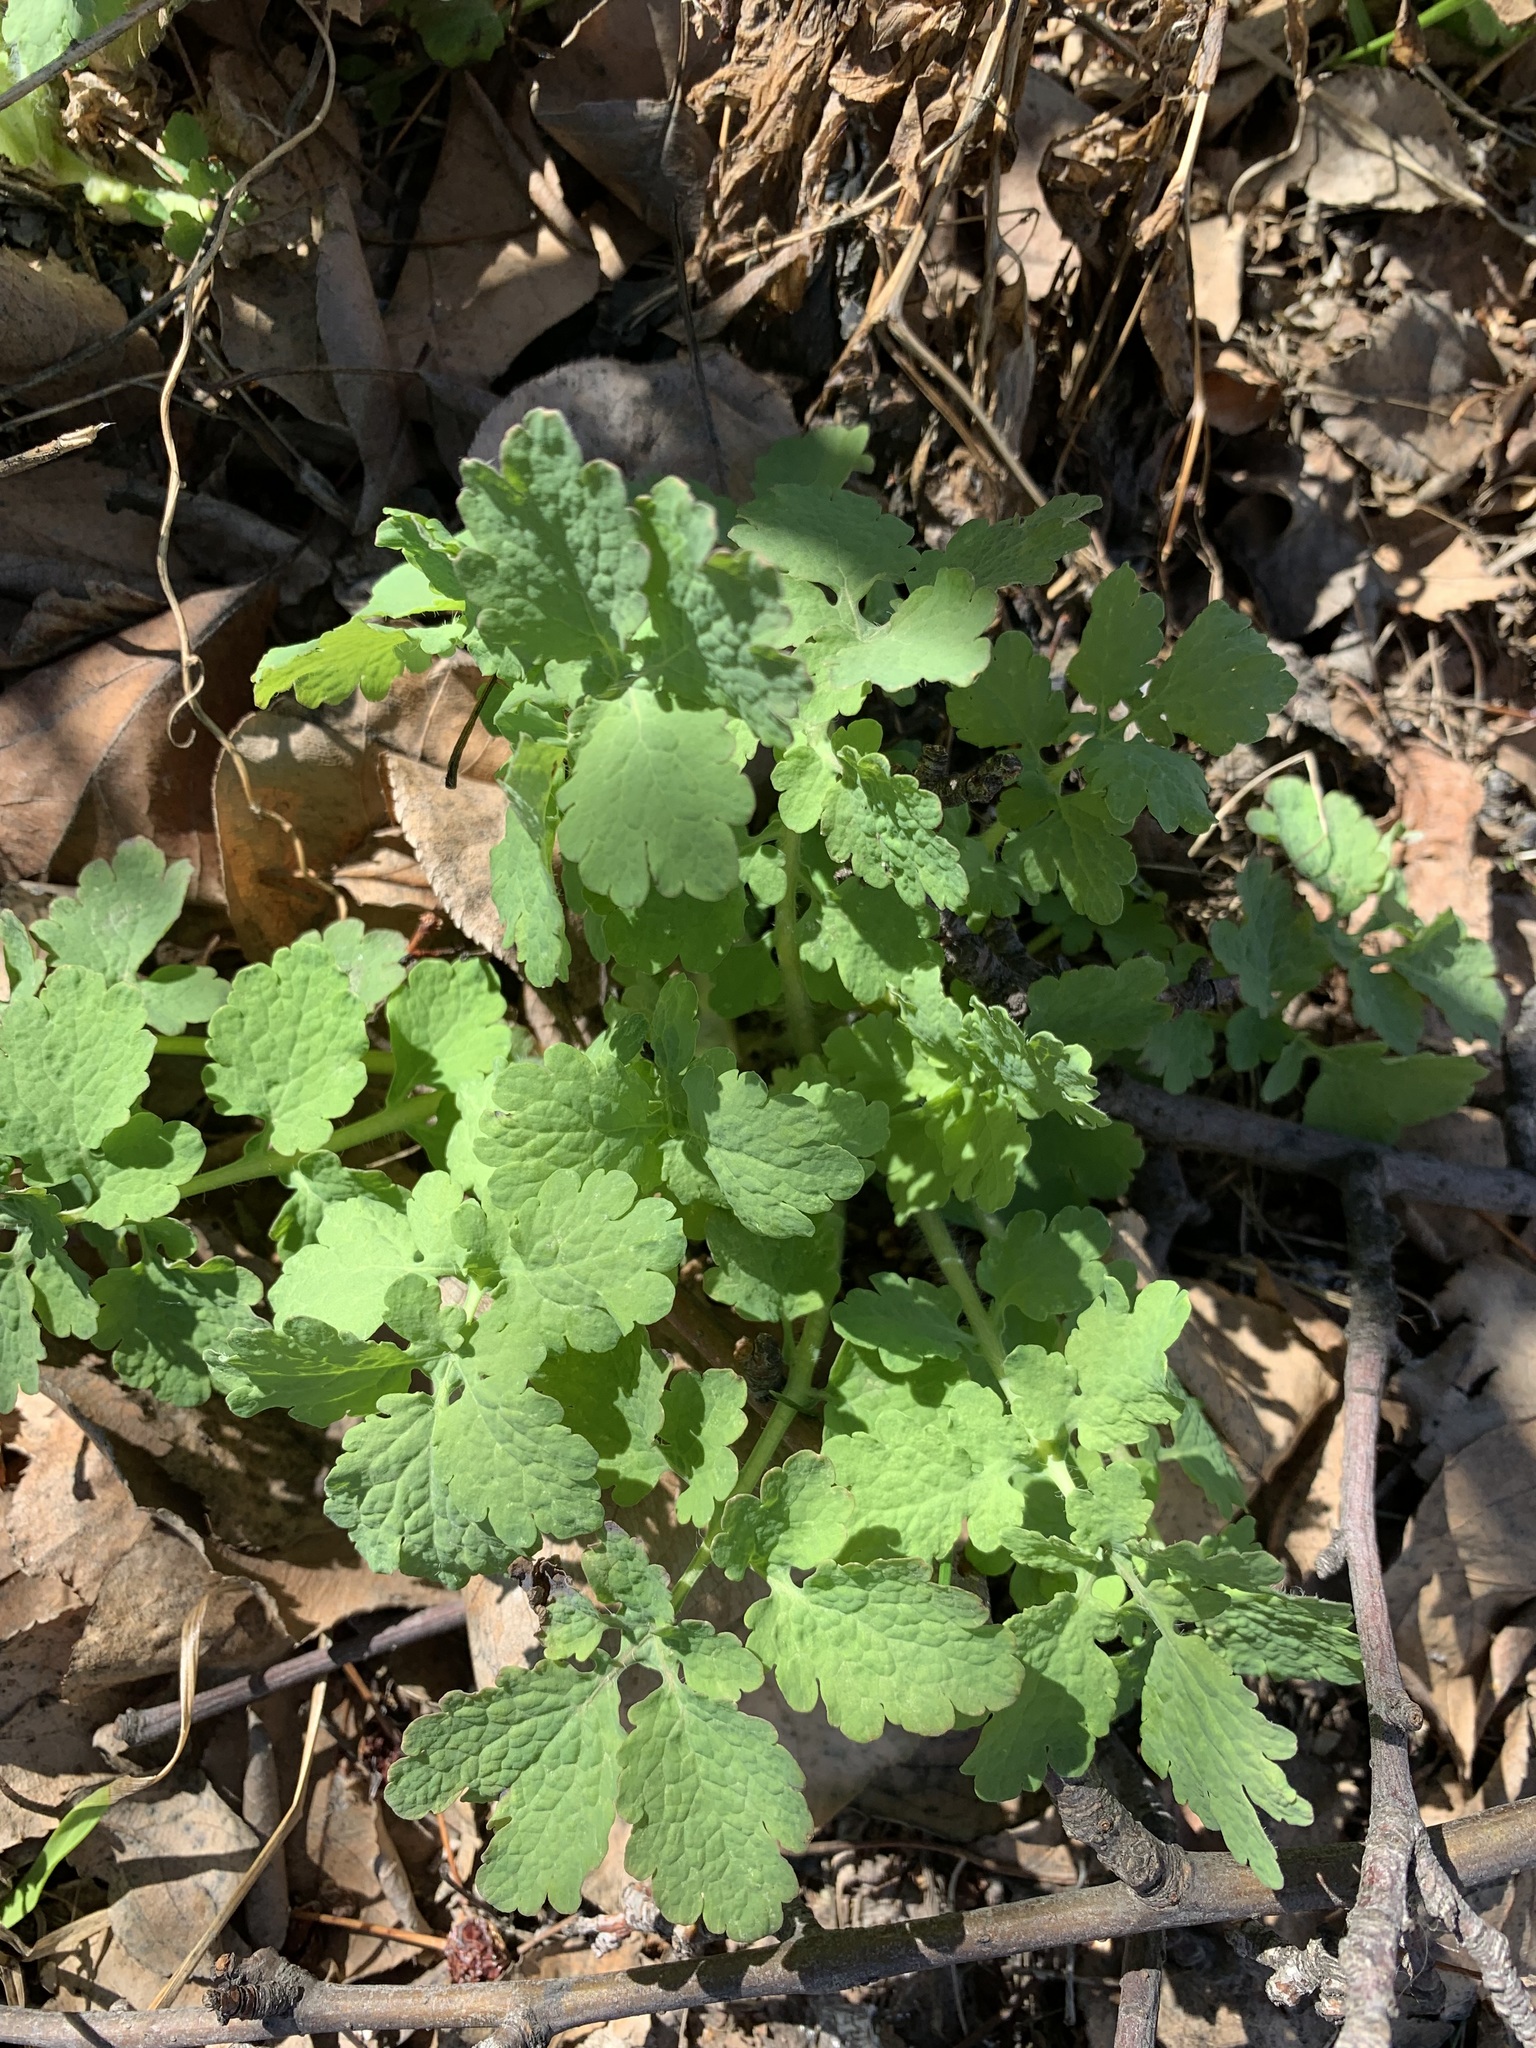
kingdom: Plantae
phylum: Tracheophyta
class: Magnoliopsida
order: Ranunculales
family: Papaveraceae
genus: Chelidonium
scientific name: Chelidonium majus
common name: Greater celandine
